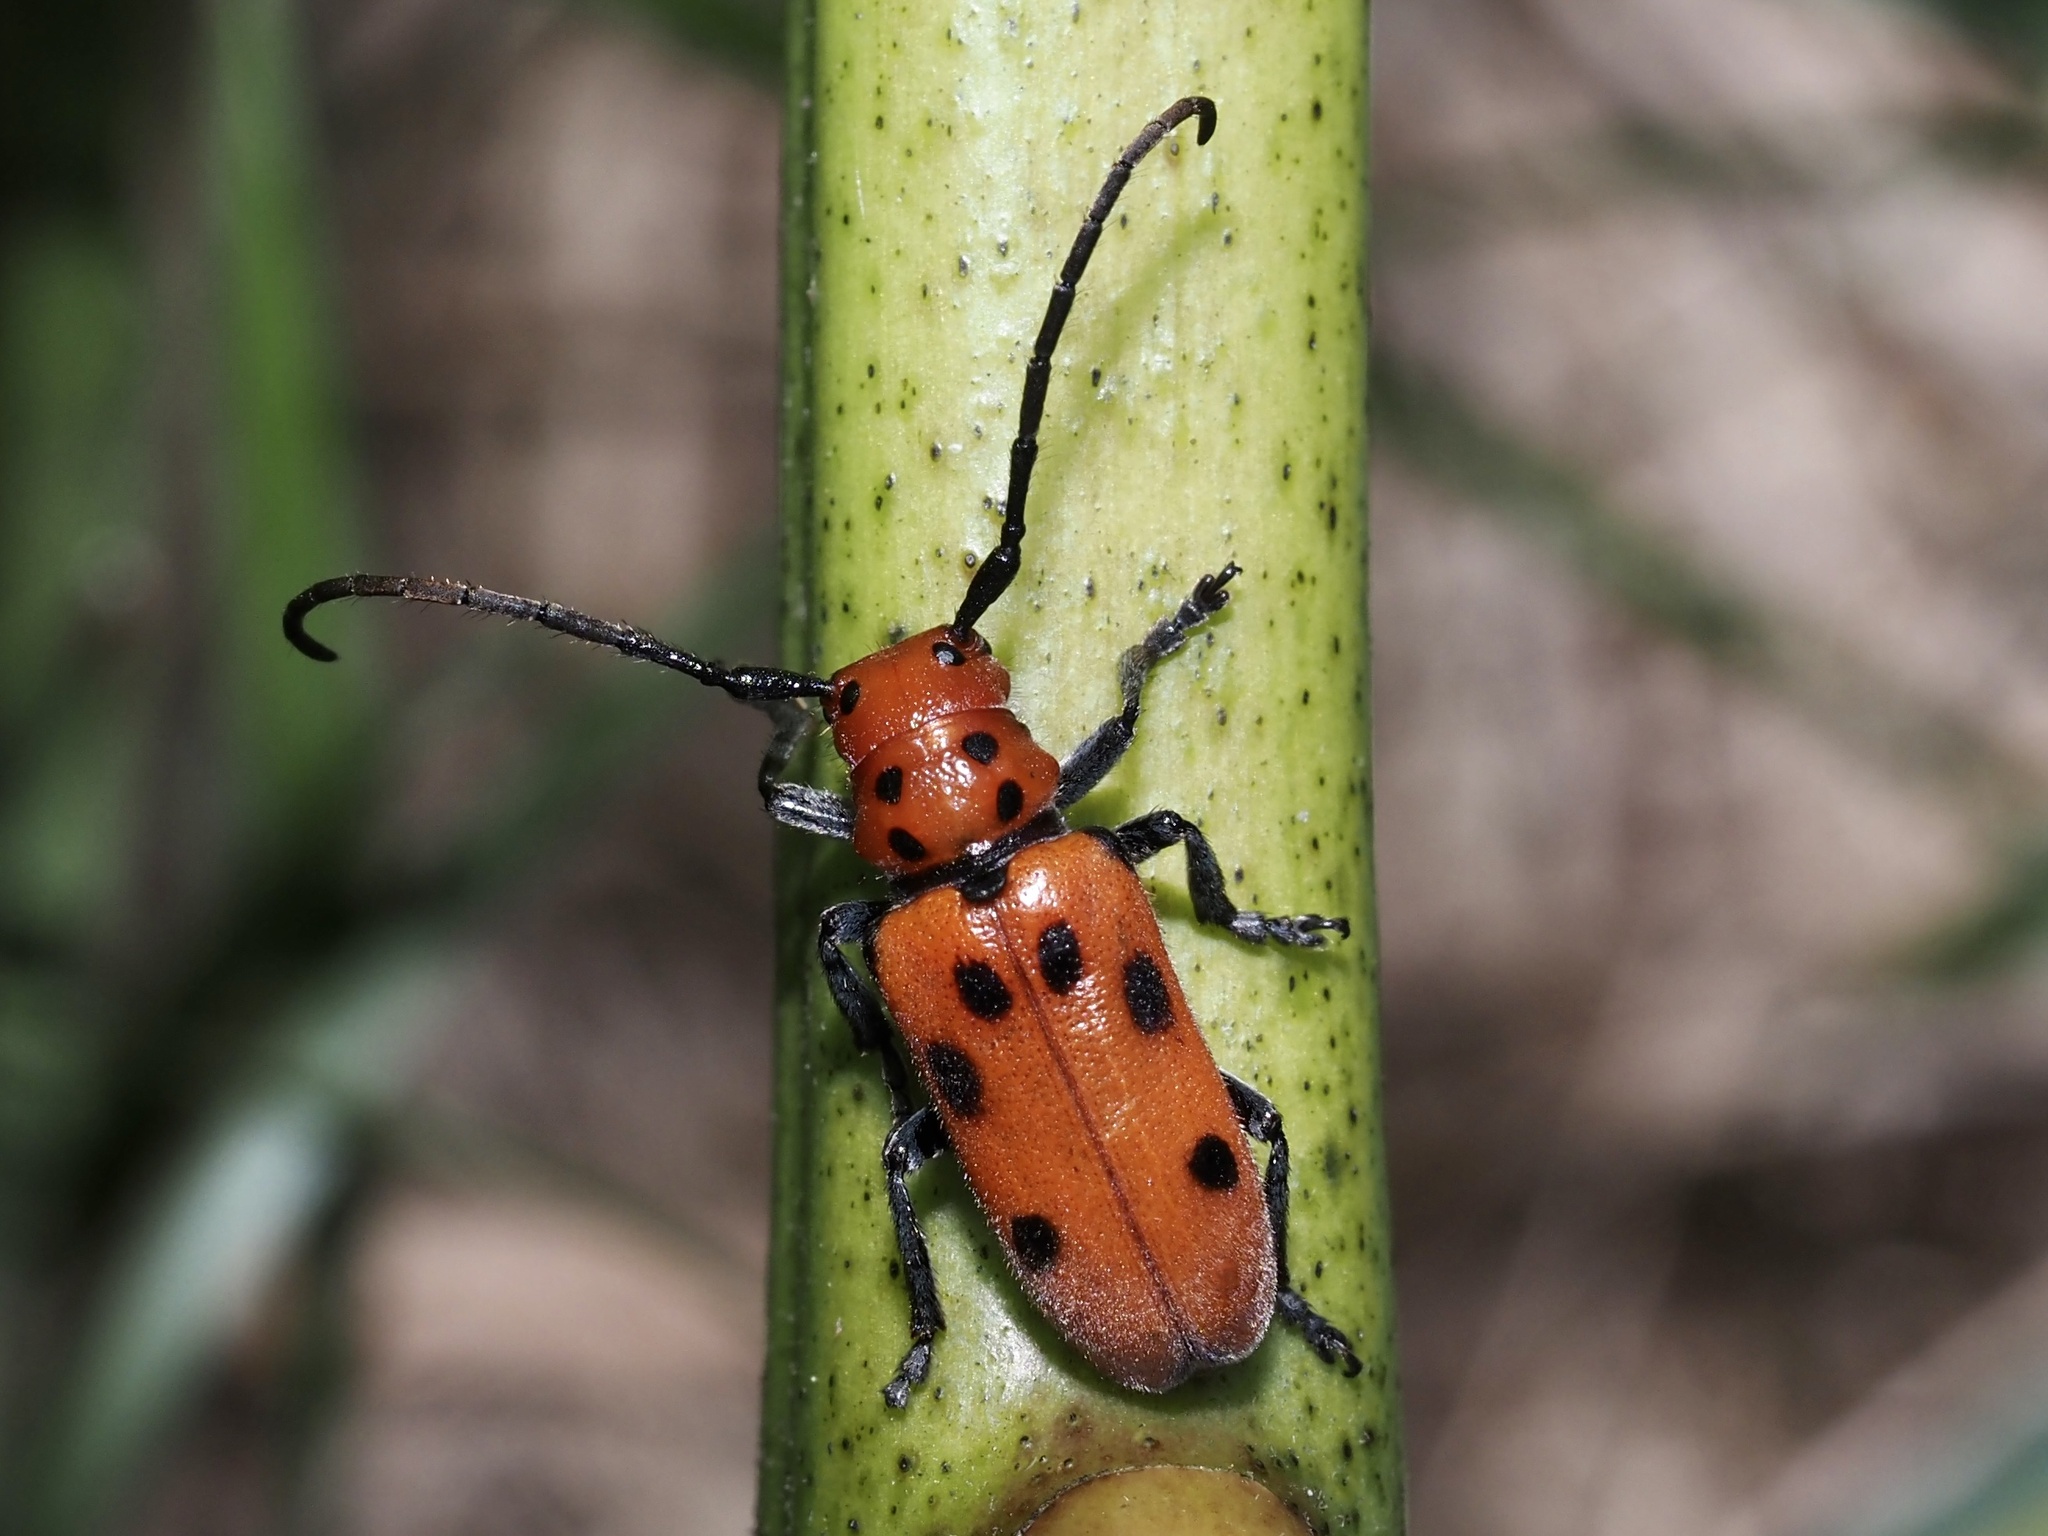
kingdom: Animalia
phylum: Arthropoda
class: Insecta
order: Coleoptera
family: Cerambycidae
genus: Tetraopes
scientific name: Tetraopes tetrophthalmus
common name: Red milkweed beetle
